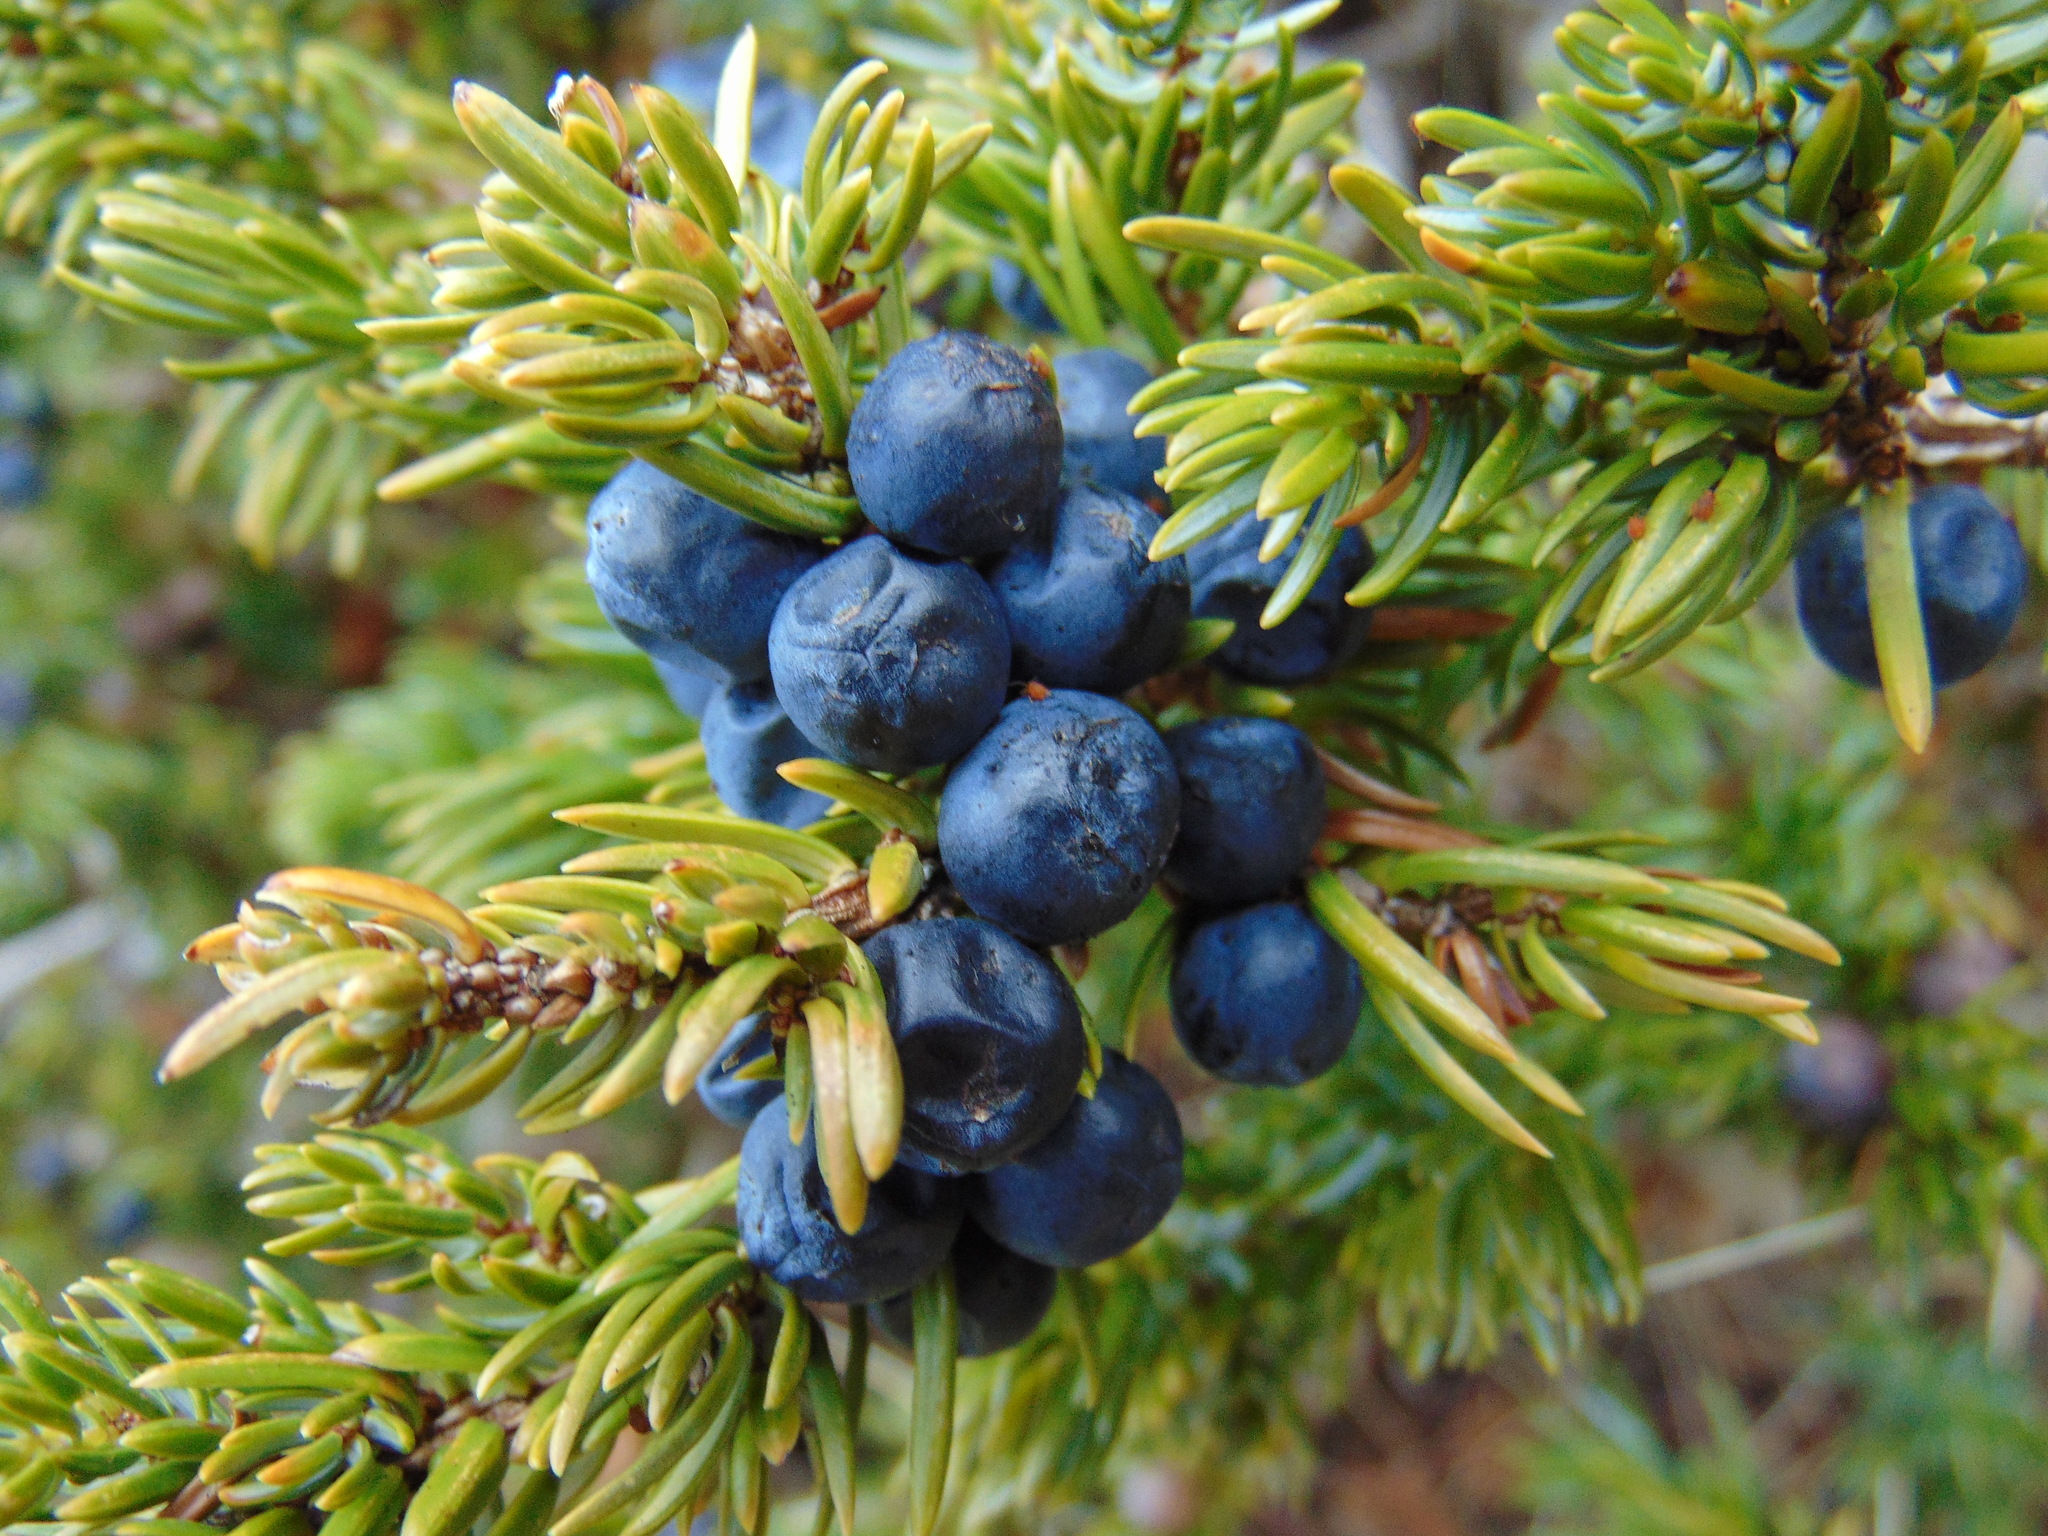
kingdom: Plantae
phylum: Tracheophyta
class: Pinopsida
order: Pinales
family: Cupressaceae
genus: Juniperus
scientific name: Juniperus communis
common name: Common juniper
